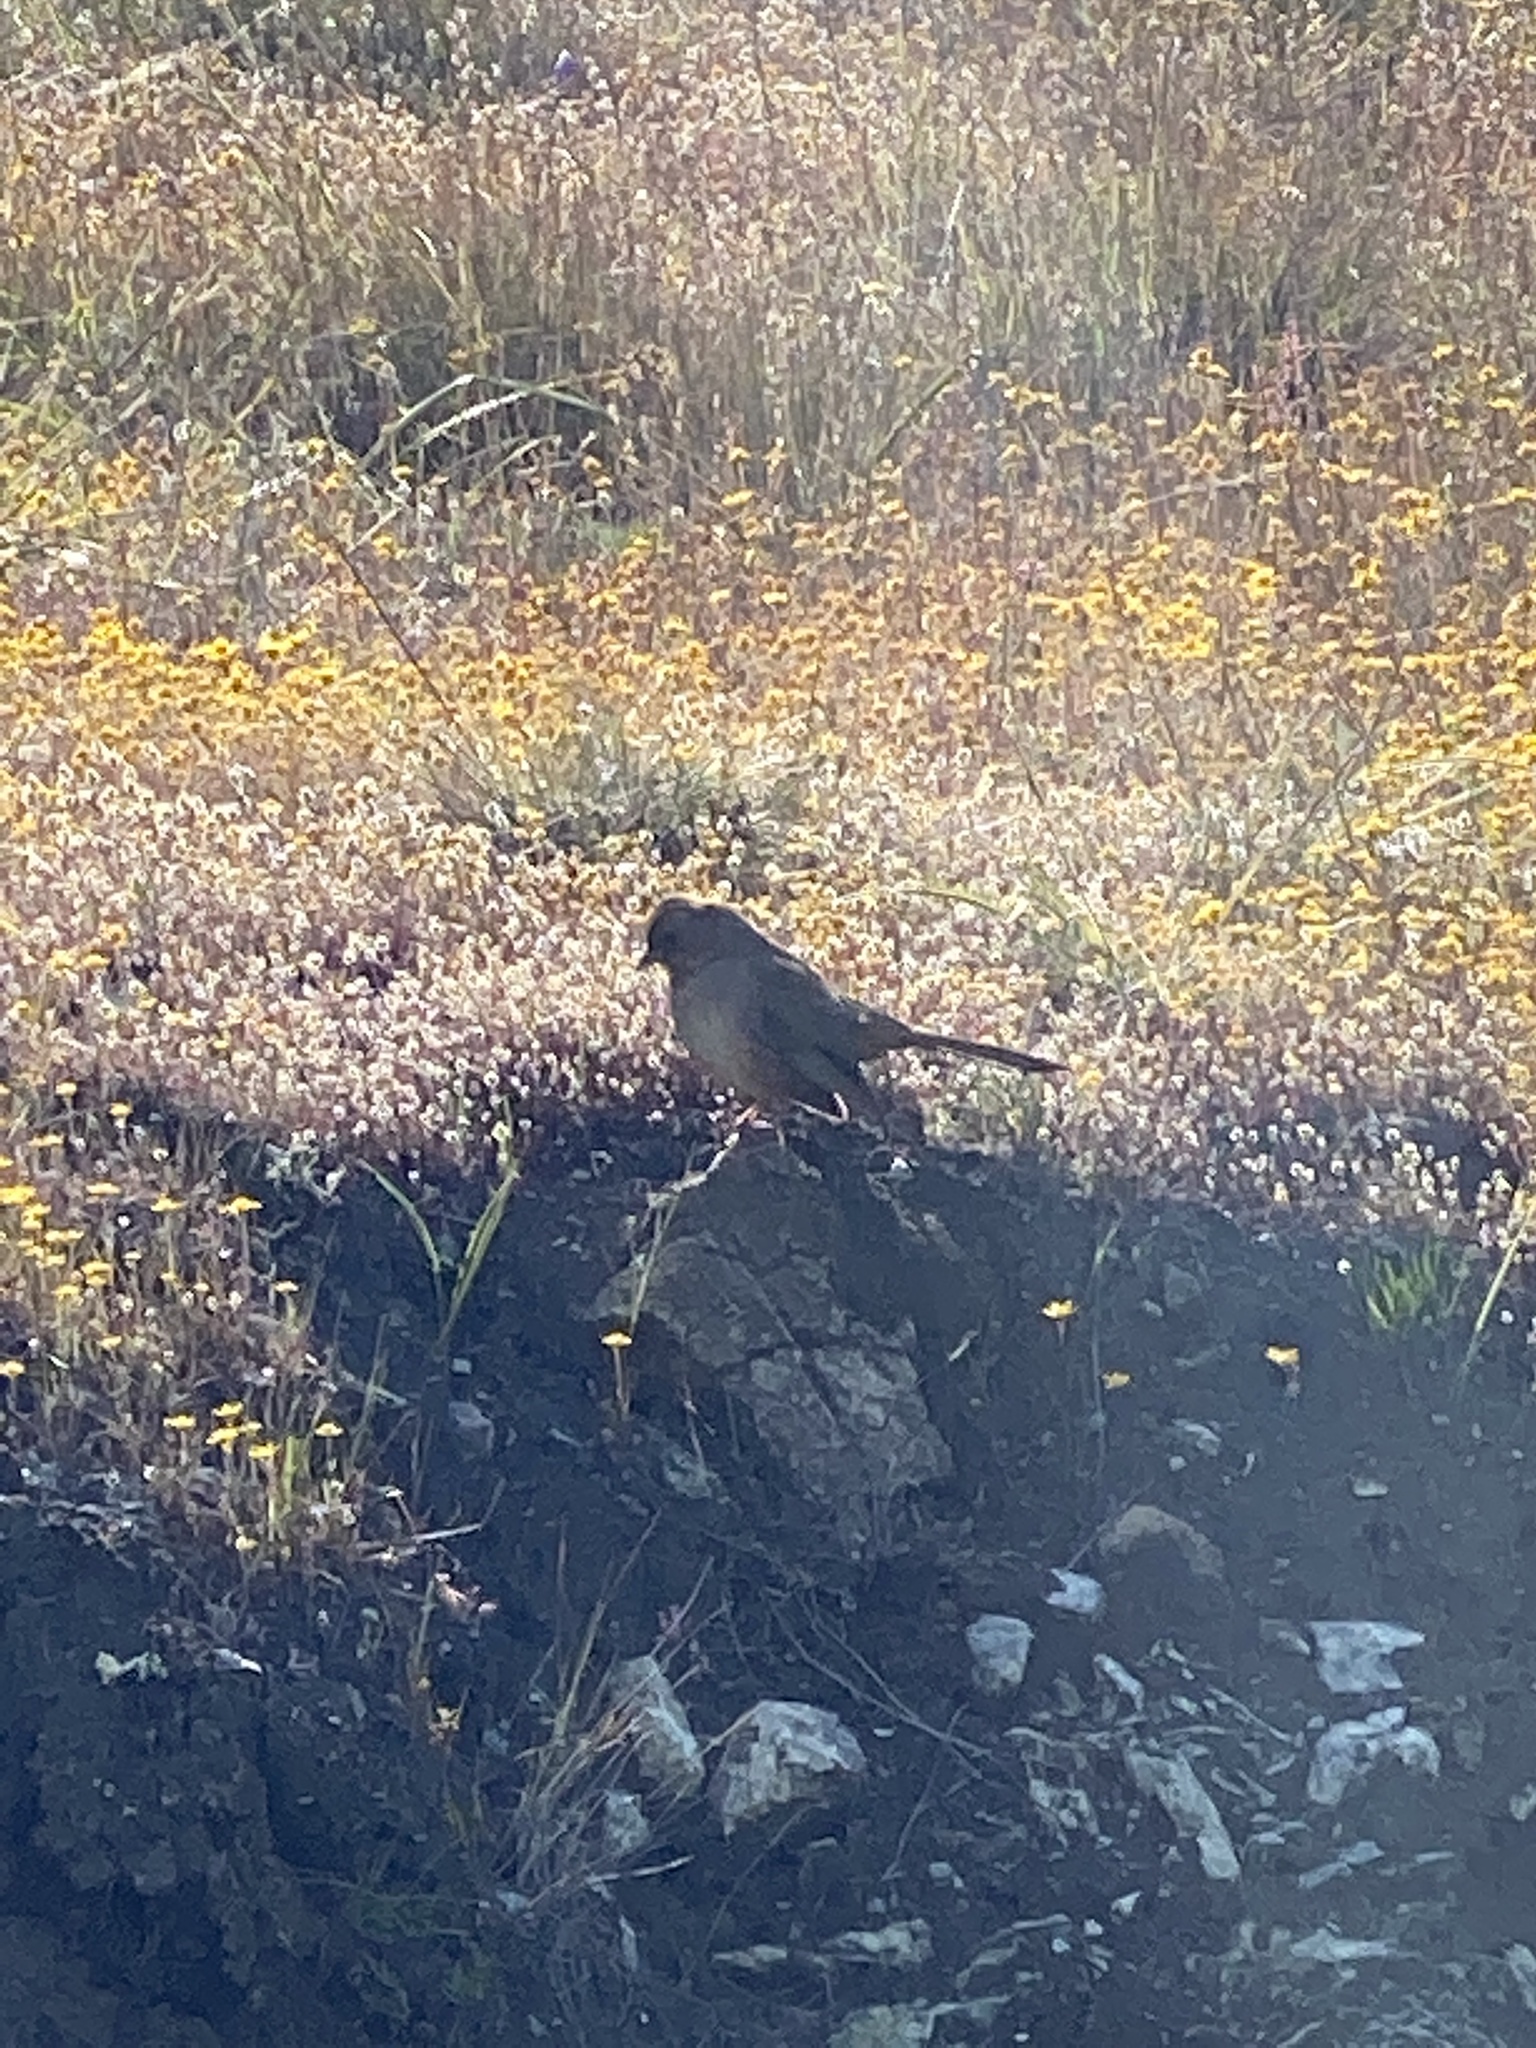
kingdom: Animalia
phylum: Chordata
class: Aves
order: Passeriformes
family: Passerellidae
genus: Melozone
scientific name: Melozone crissalis
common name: California towhee
